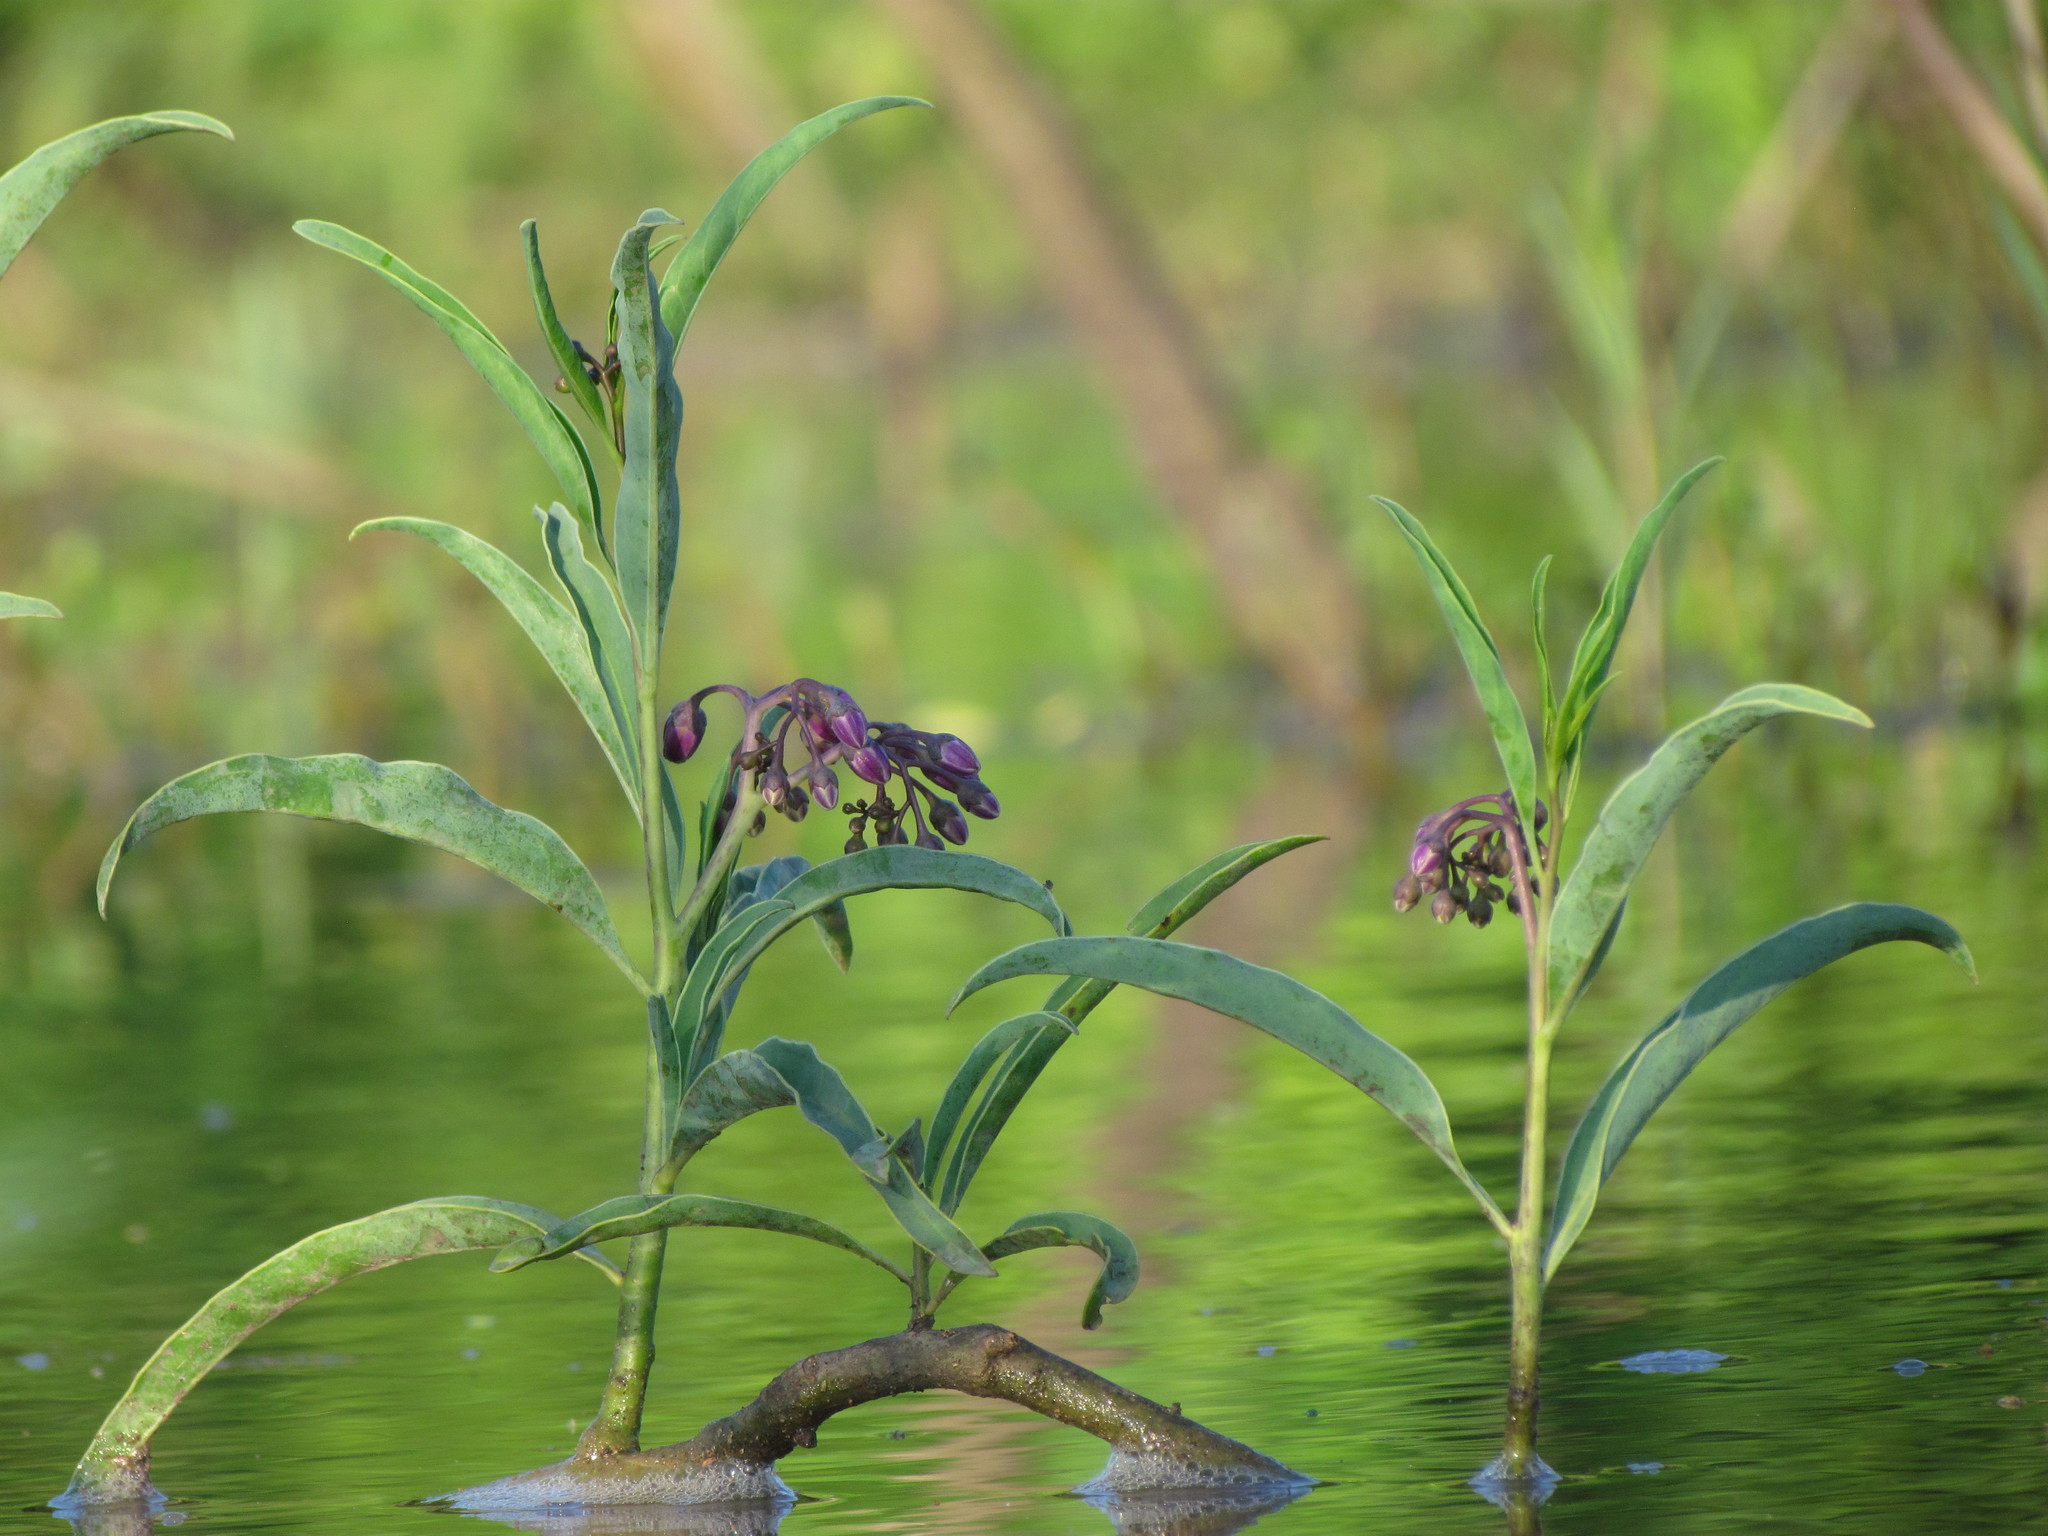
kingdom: Plantae
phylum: Tracheophyta
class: Magnoliopsida
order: Solanales
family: Solanaceae
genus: Solanum
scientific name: Solanum glaucophyllum
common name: Waxyleaf nightshade
